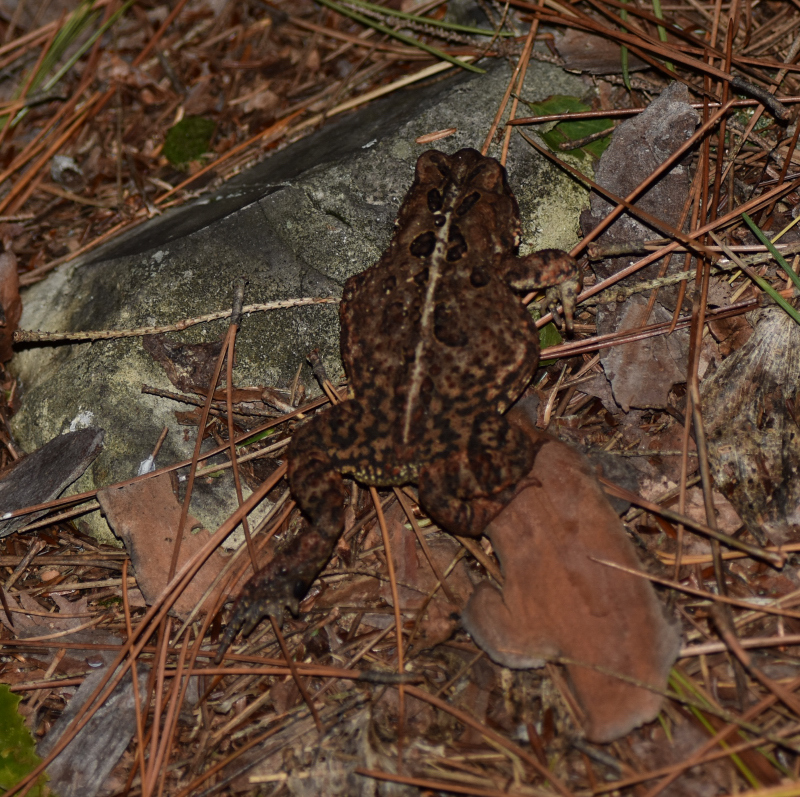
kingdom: Animalia
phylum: Chordata
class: Amphibia
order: Anura
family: Bufonidae
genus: Anaxyrus
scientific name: Anaxyrus americanus
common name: American toad
